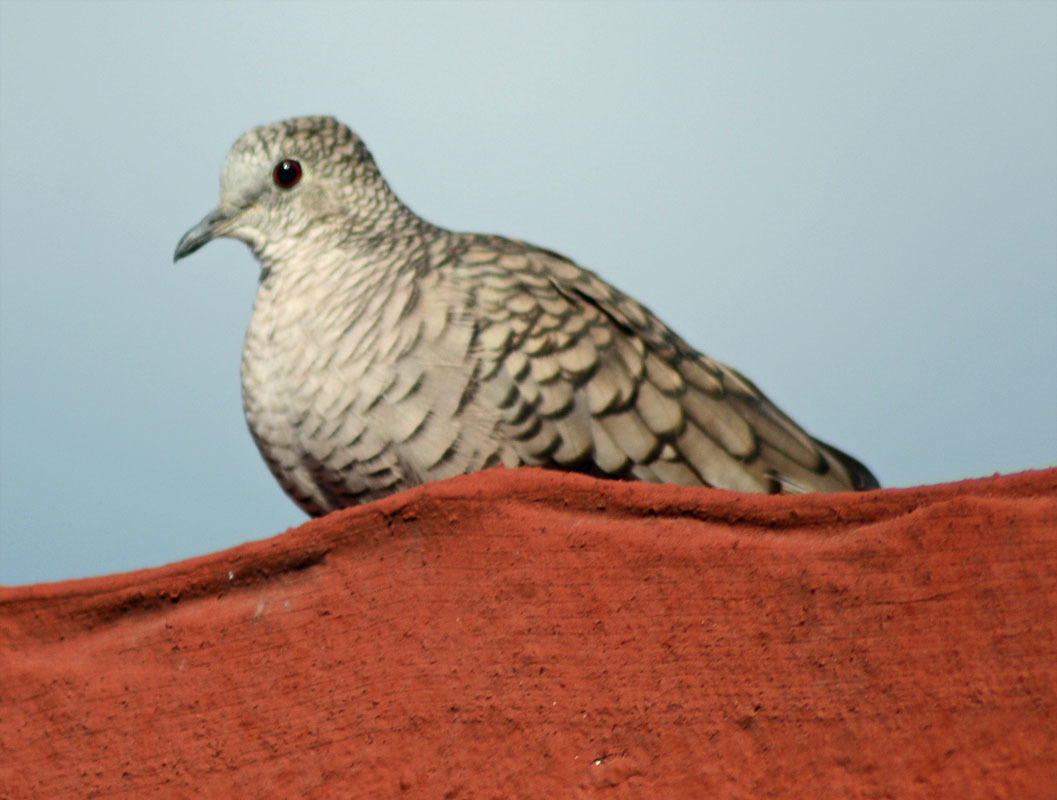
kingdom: Animalia
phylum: Chordata
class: Aves
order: Columbiformes
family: Columbidae
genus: Columbina
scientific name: Columbina inca
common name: Inca dove
